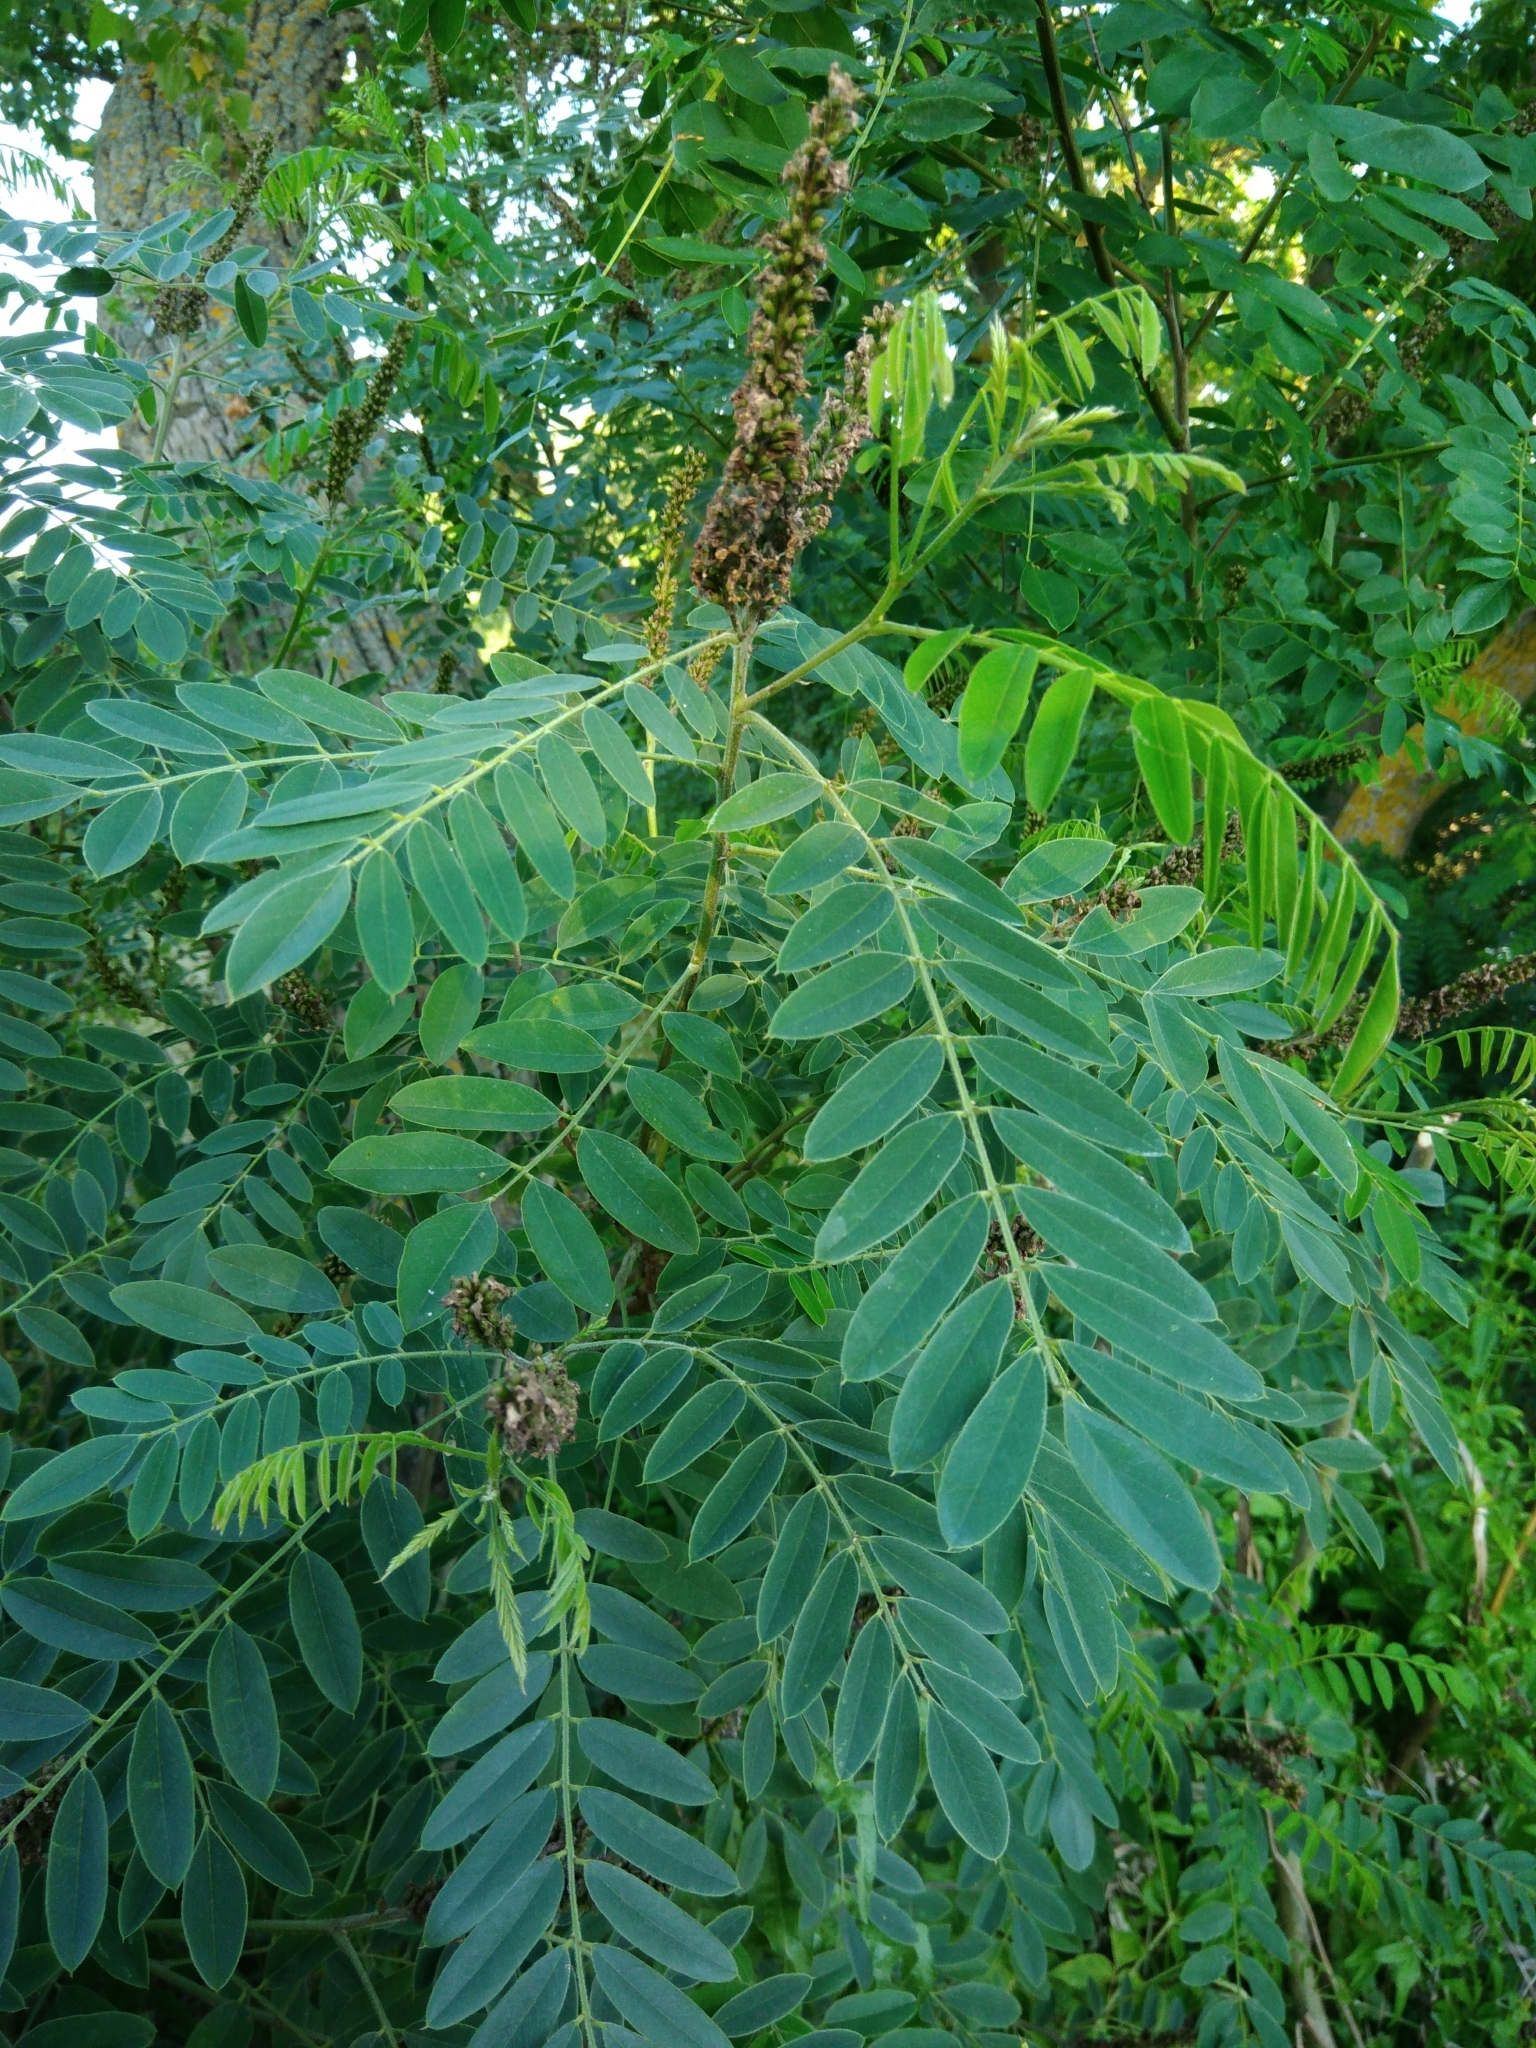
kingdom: Plantae
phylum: Tracheophyta
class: Magnoliopsida
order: Fabales
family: Fabaceae
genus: Amorpha
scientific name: Amorpha fruticosa
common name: False indigo
